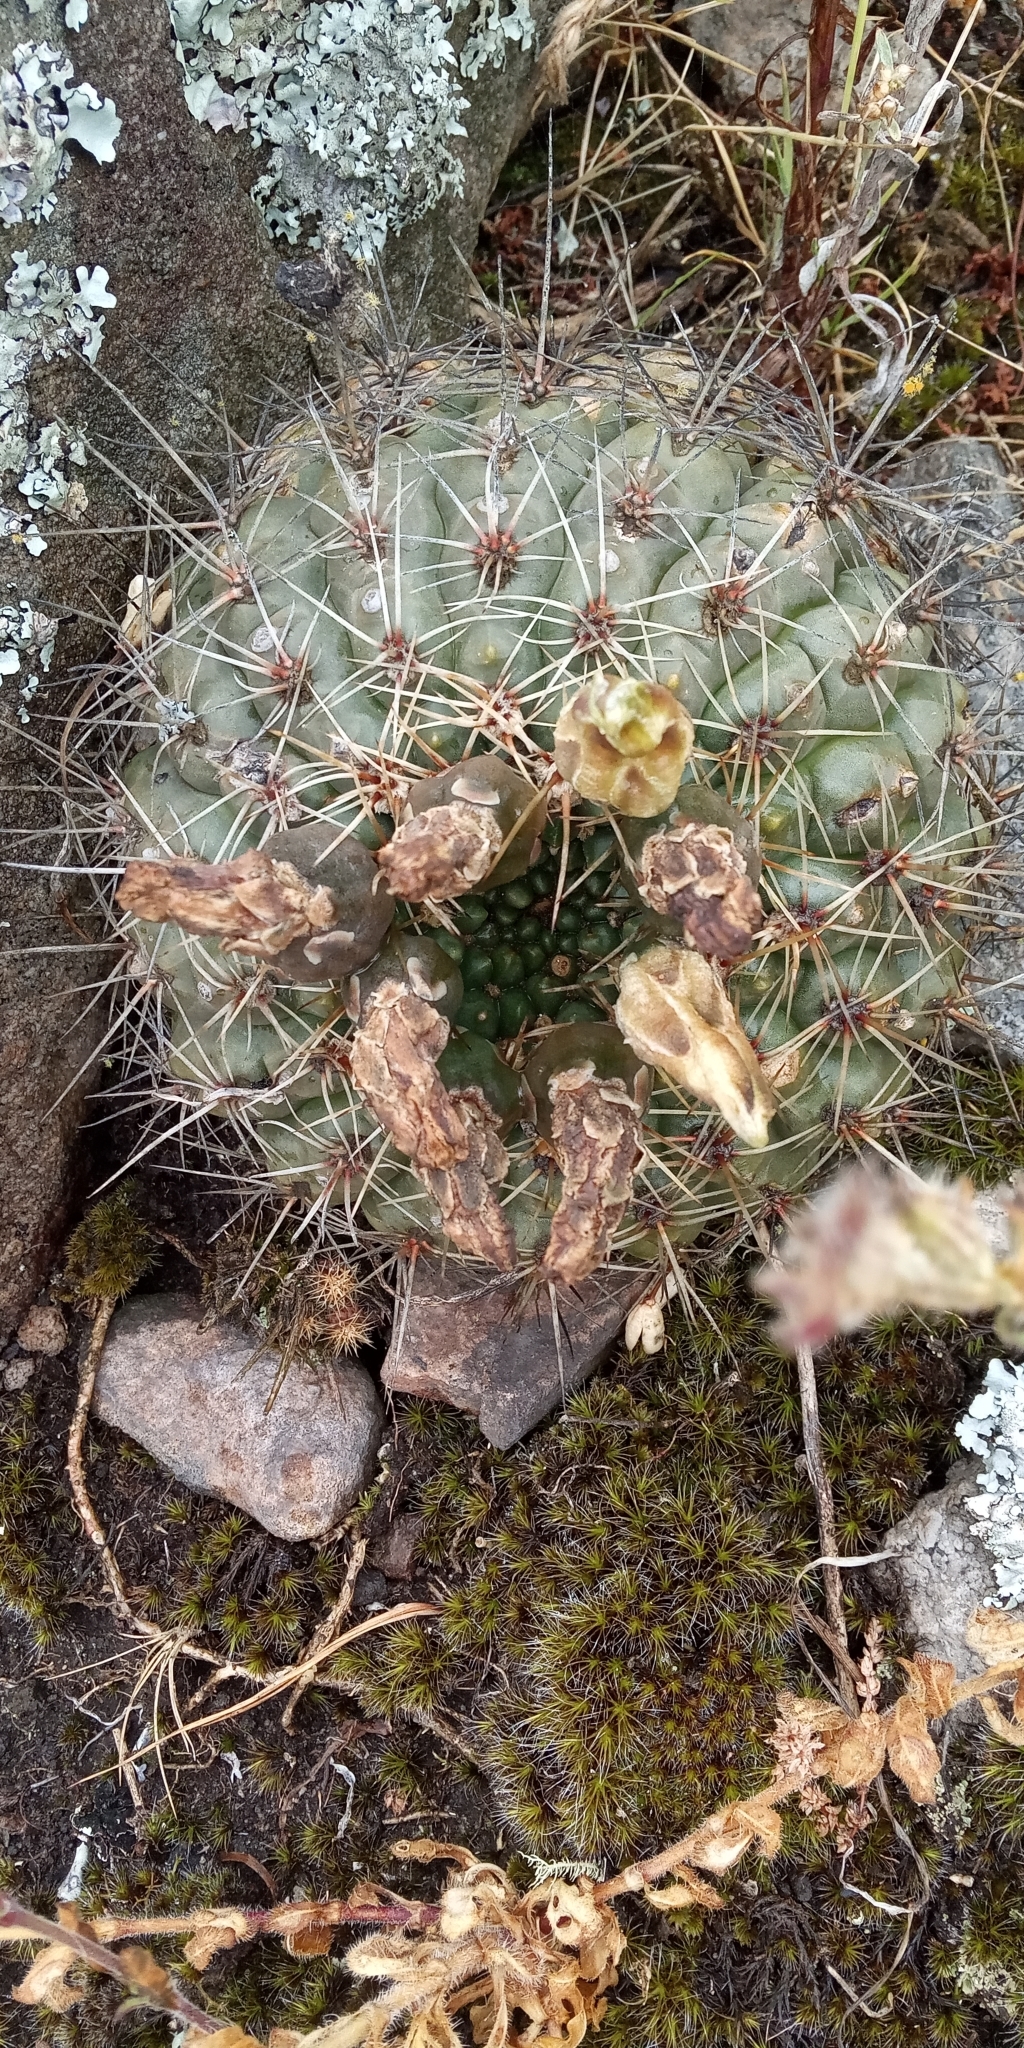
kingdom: Plantae
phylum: Tracheophyta
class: Magnoliopsida
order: Caryophyllales
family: Cactaceae
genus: Gymnocalycium
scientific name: Gymnocalycium reductum
